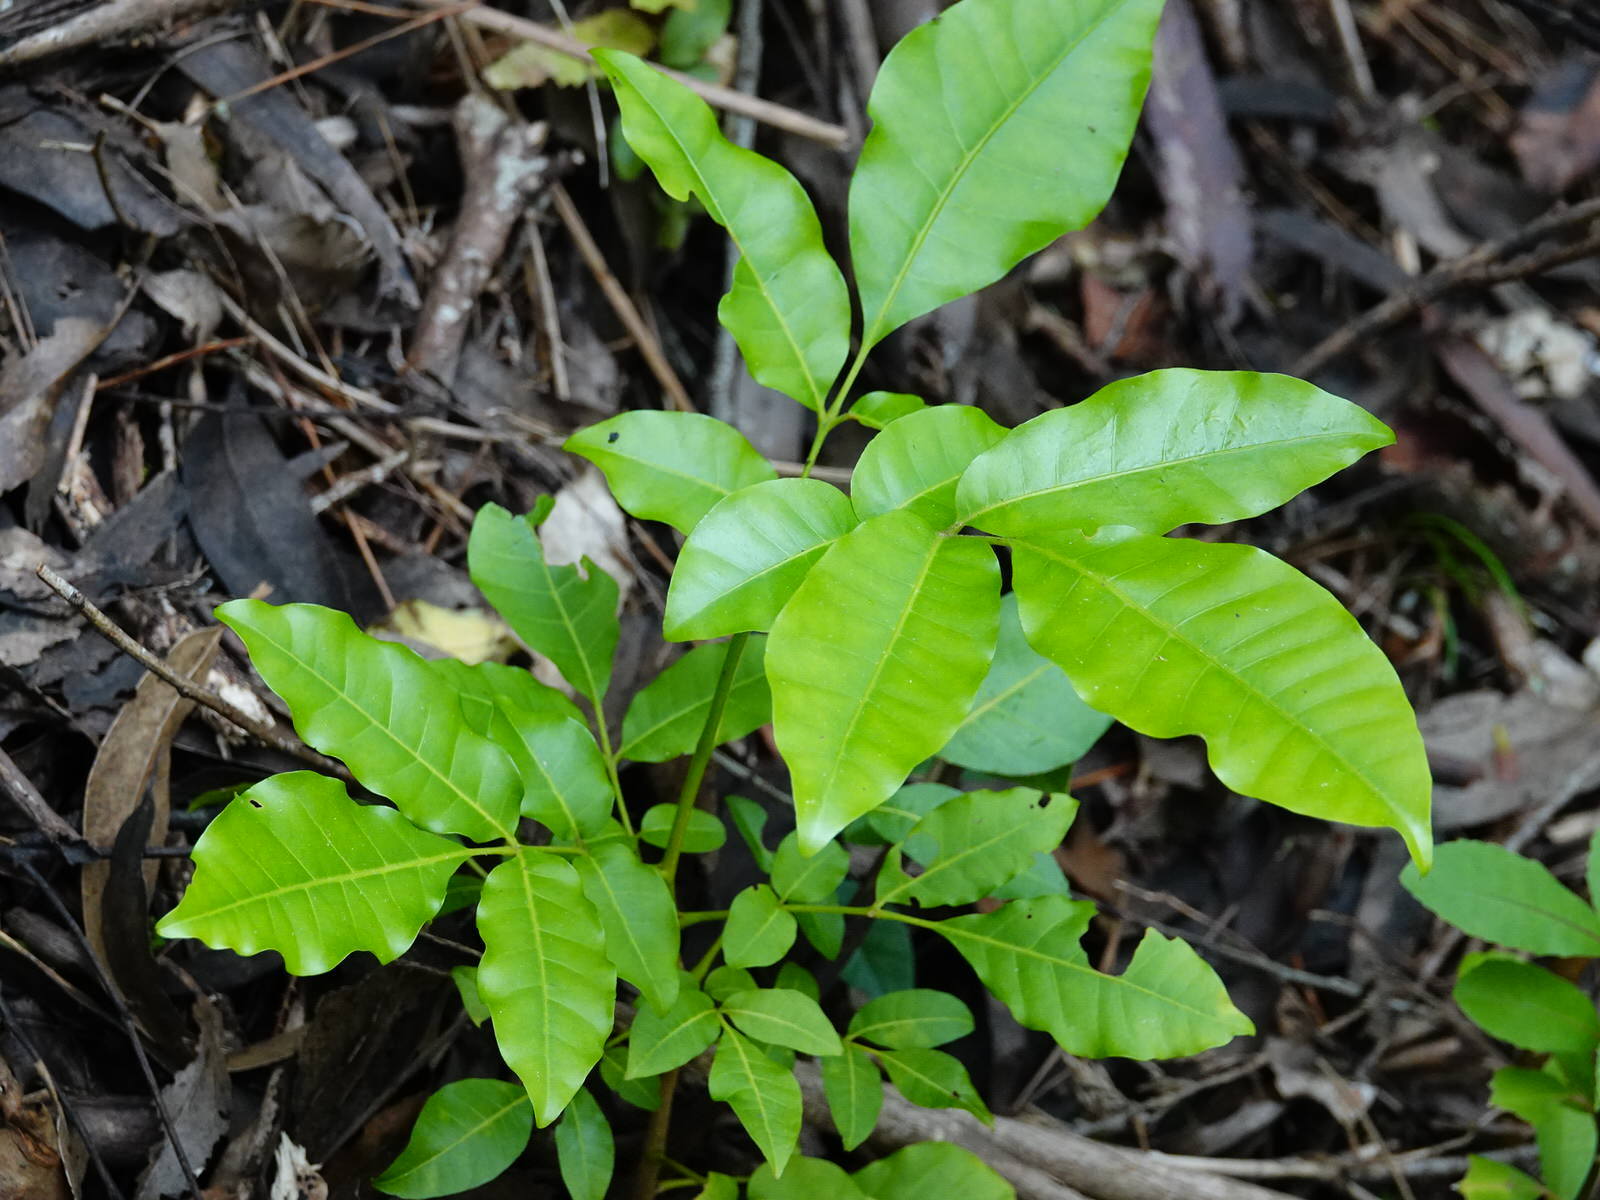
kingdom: Plantae
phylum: Tracheophyta
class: Magnoliopsida
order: Sapindales
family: Meliaceae
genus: Didymocheton
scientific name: Didymocheton spectabilis
